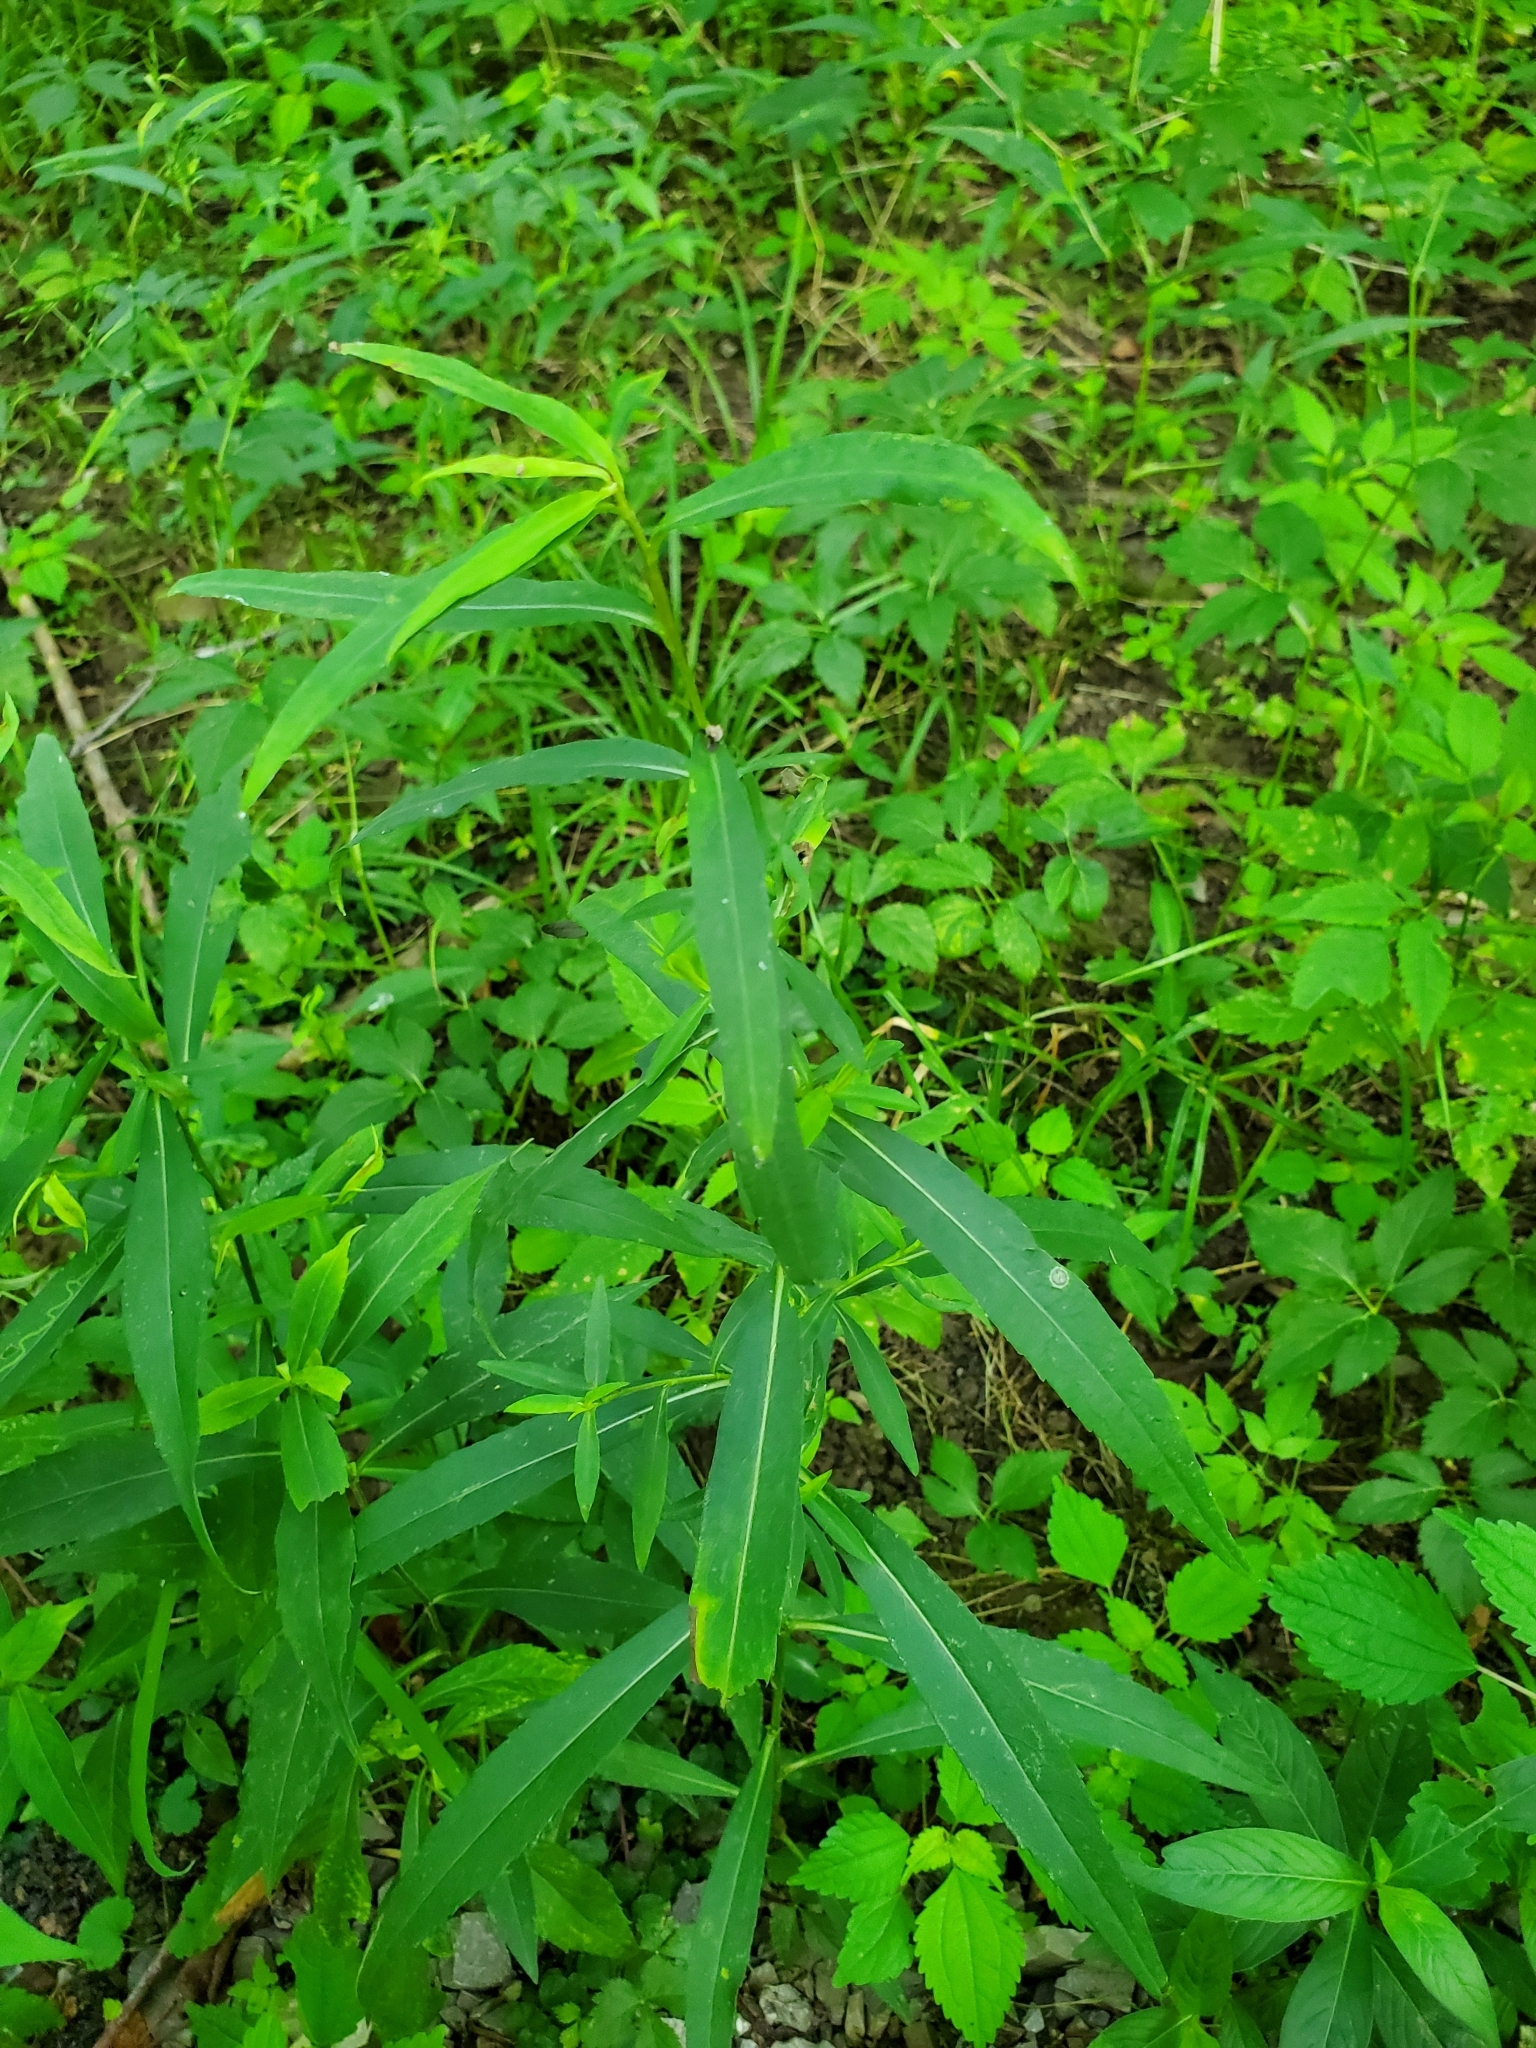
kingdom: Animalia
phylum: Arthropoda
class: Insecta
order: Diptera
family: Cecidomyiidae
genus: Asteromyia
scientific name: Asteromyia carbonifera
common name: Carbonifera goldenrod gall midge
